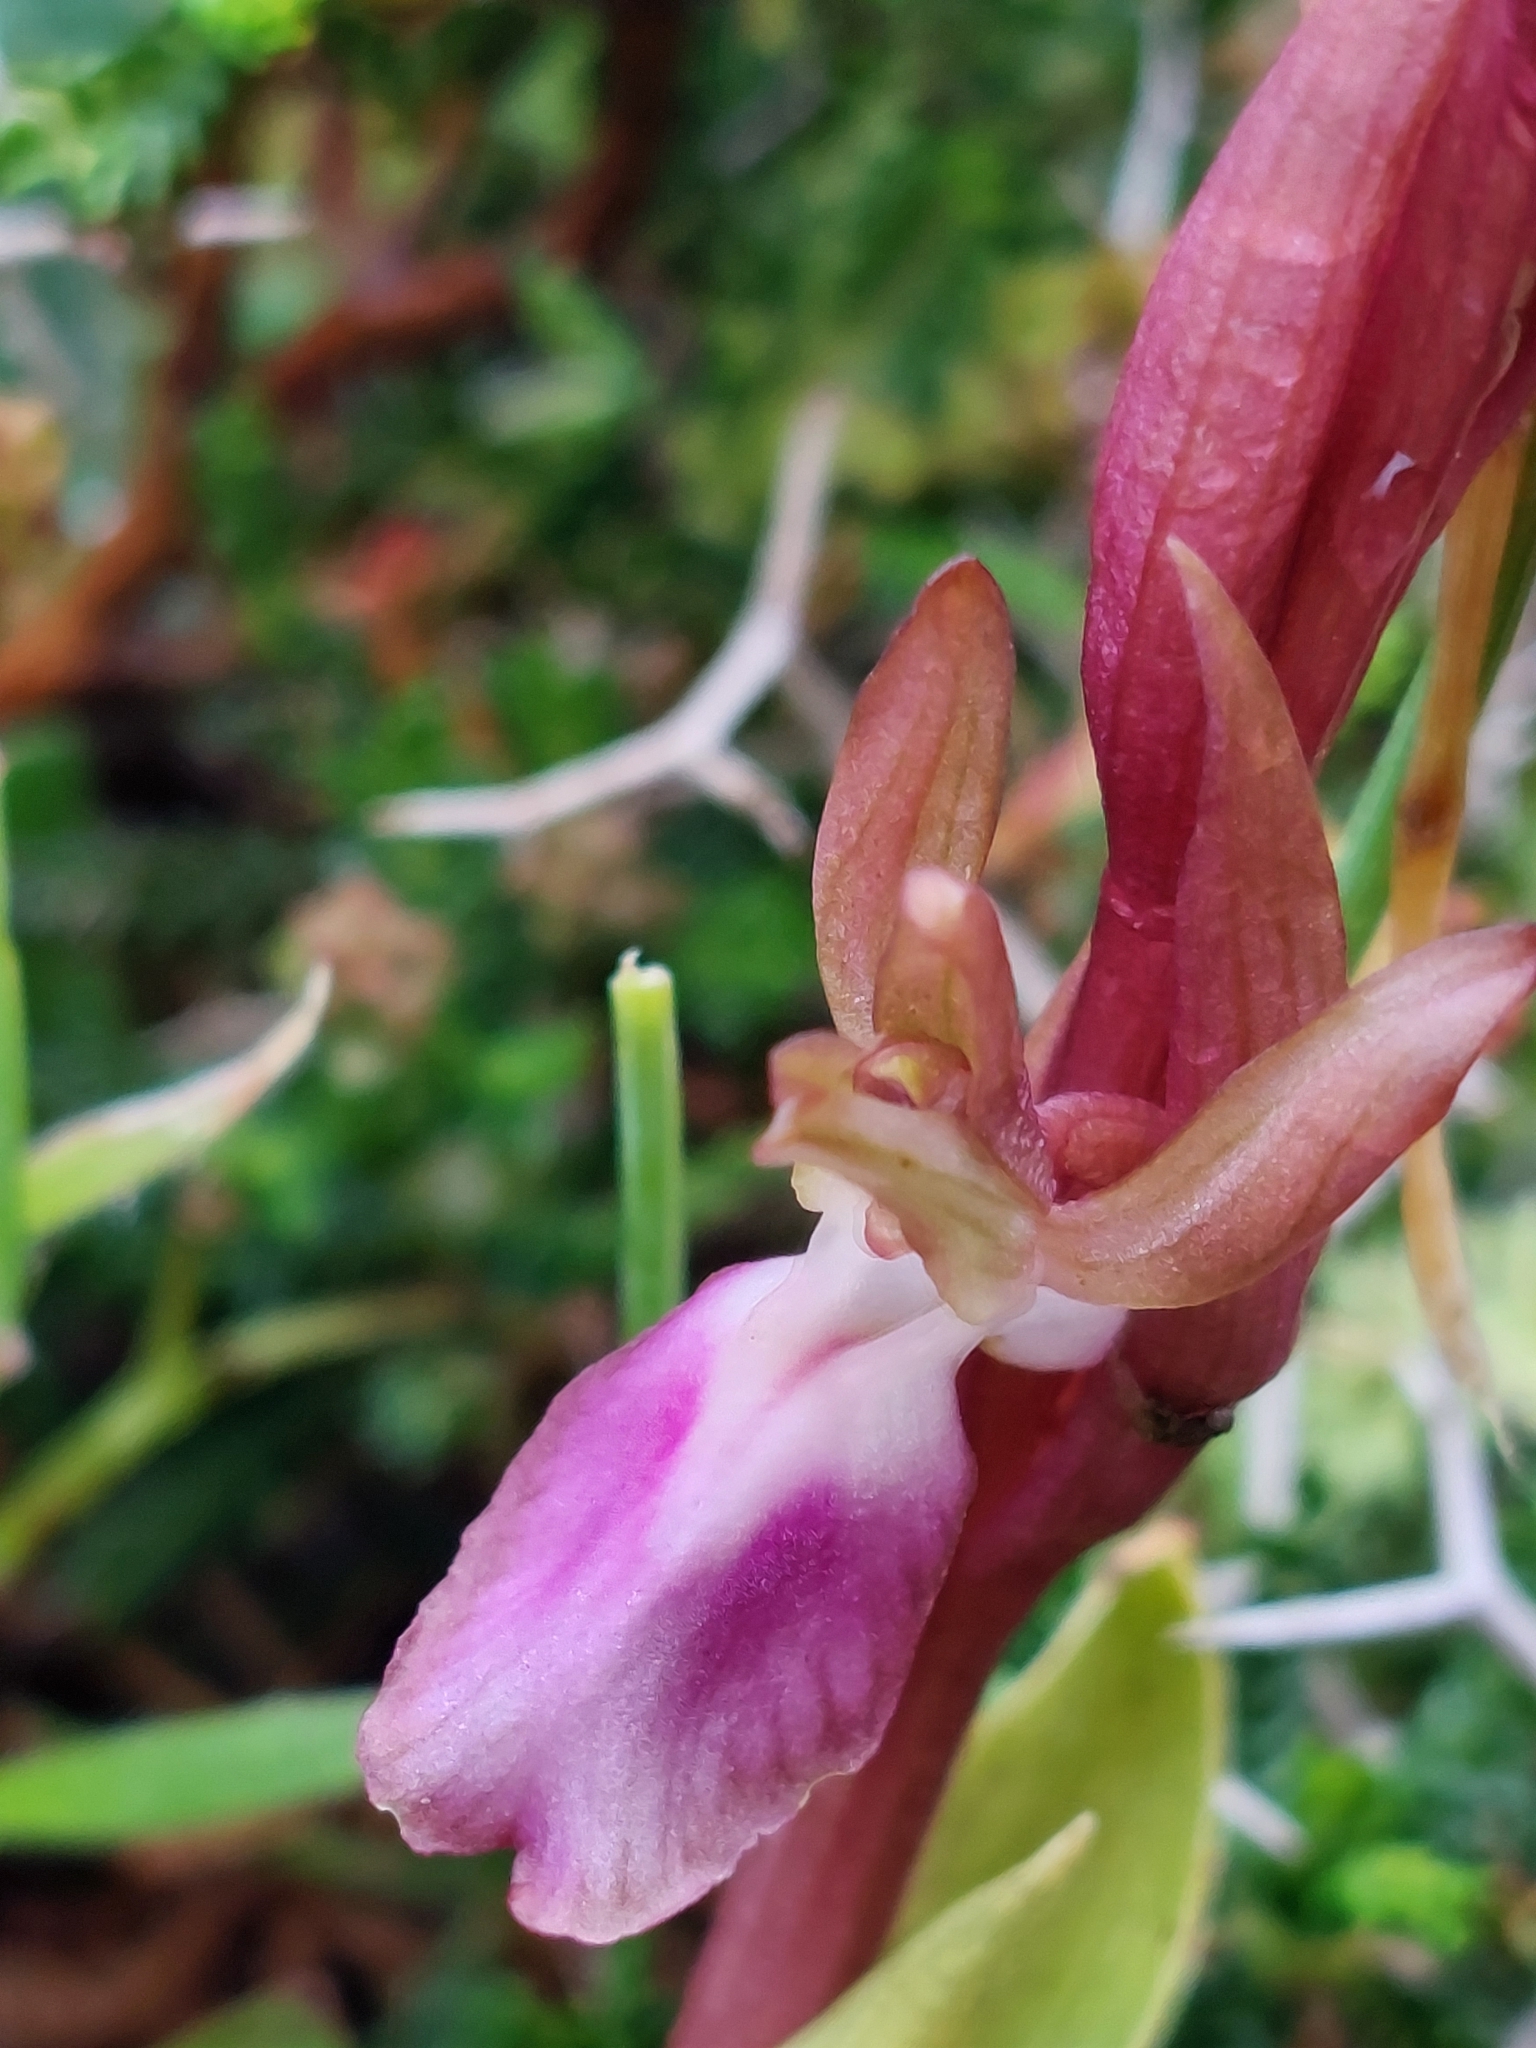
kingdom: Plantae
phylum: Tracheophyta
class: Liliopsida
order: Asparagales
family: Orchidaceae
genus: Anacamptis
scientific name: Anacamptis collina
